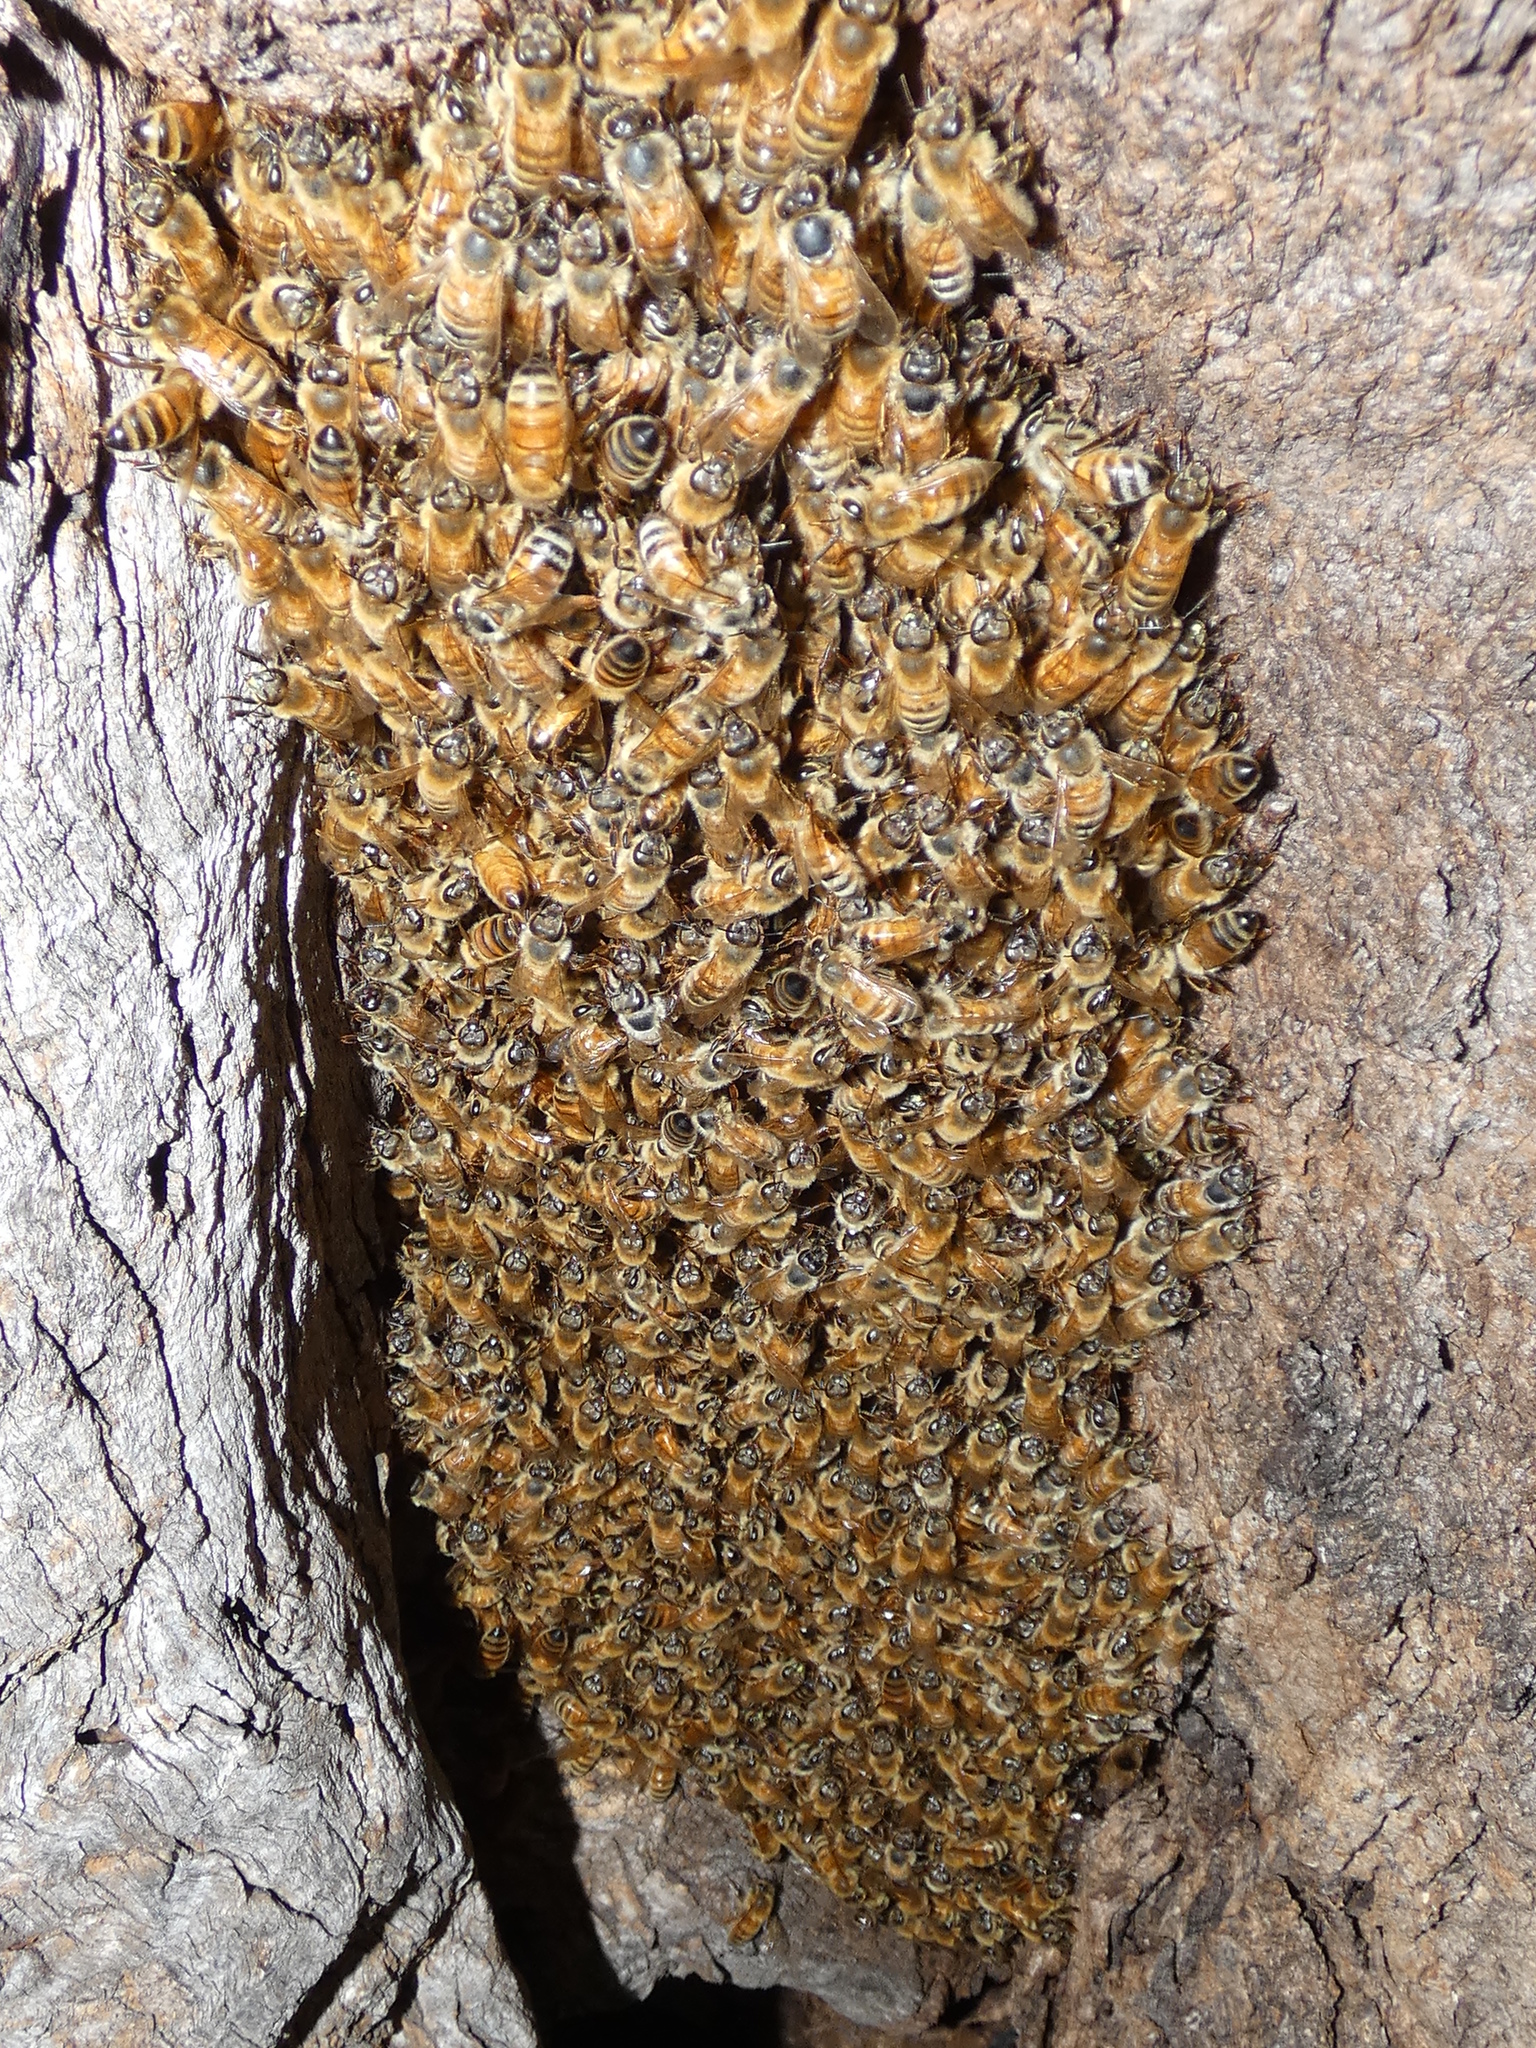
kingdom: Animalia
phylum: Arthropoda
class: Insecta
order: Hymenoptera
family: Apidae
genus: Apis
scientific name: Apis mellifera
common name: Honey bee
